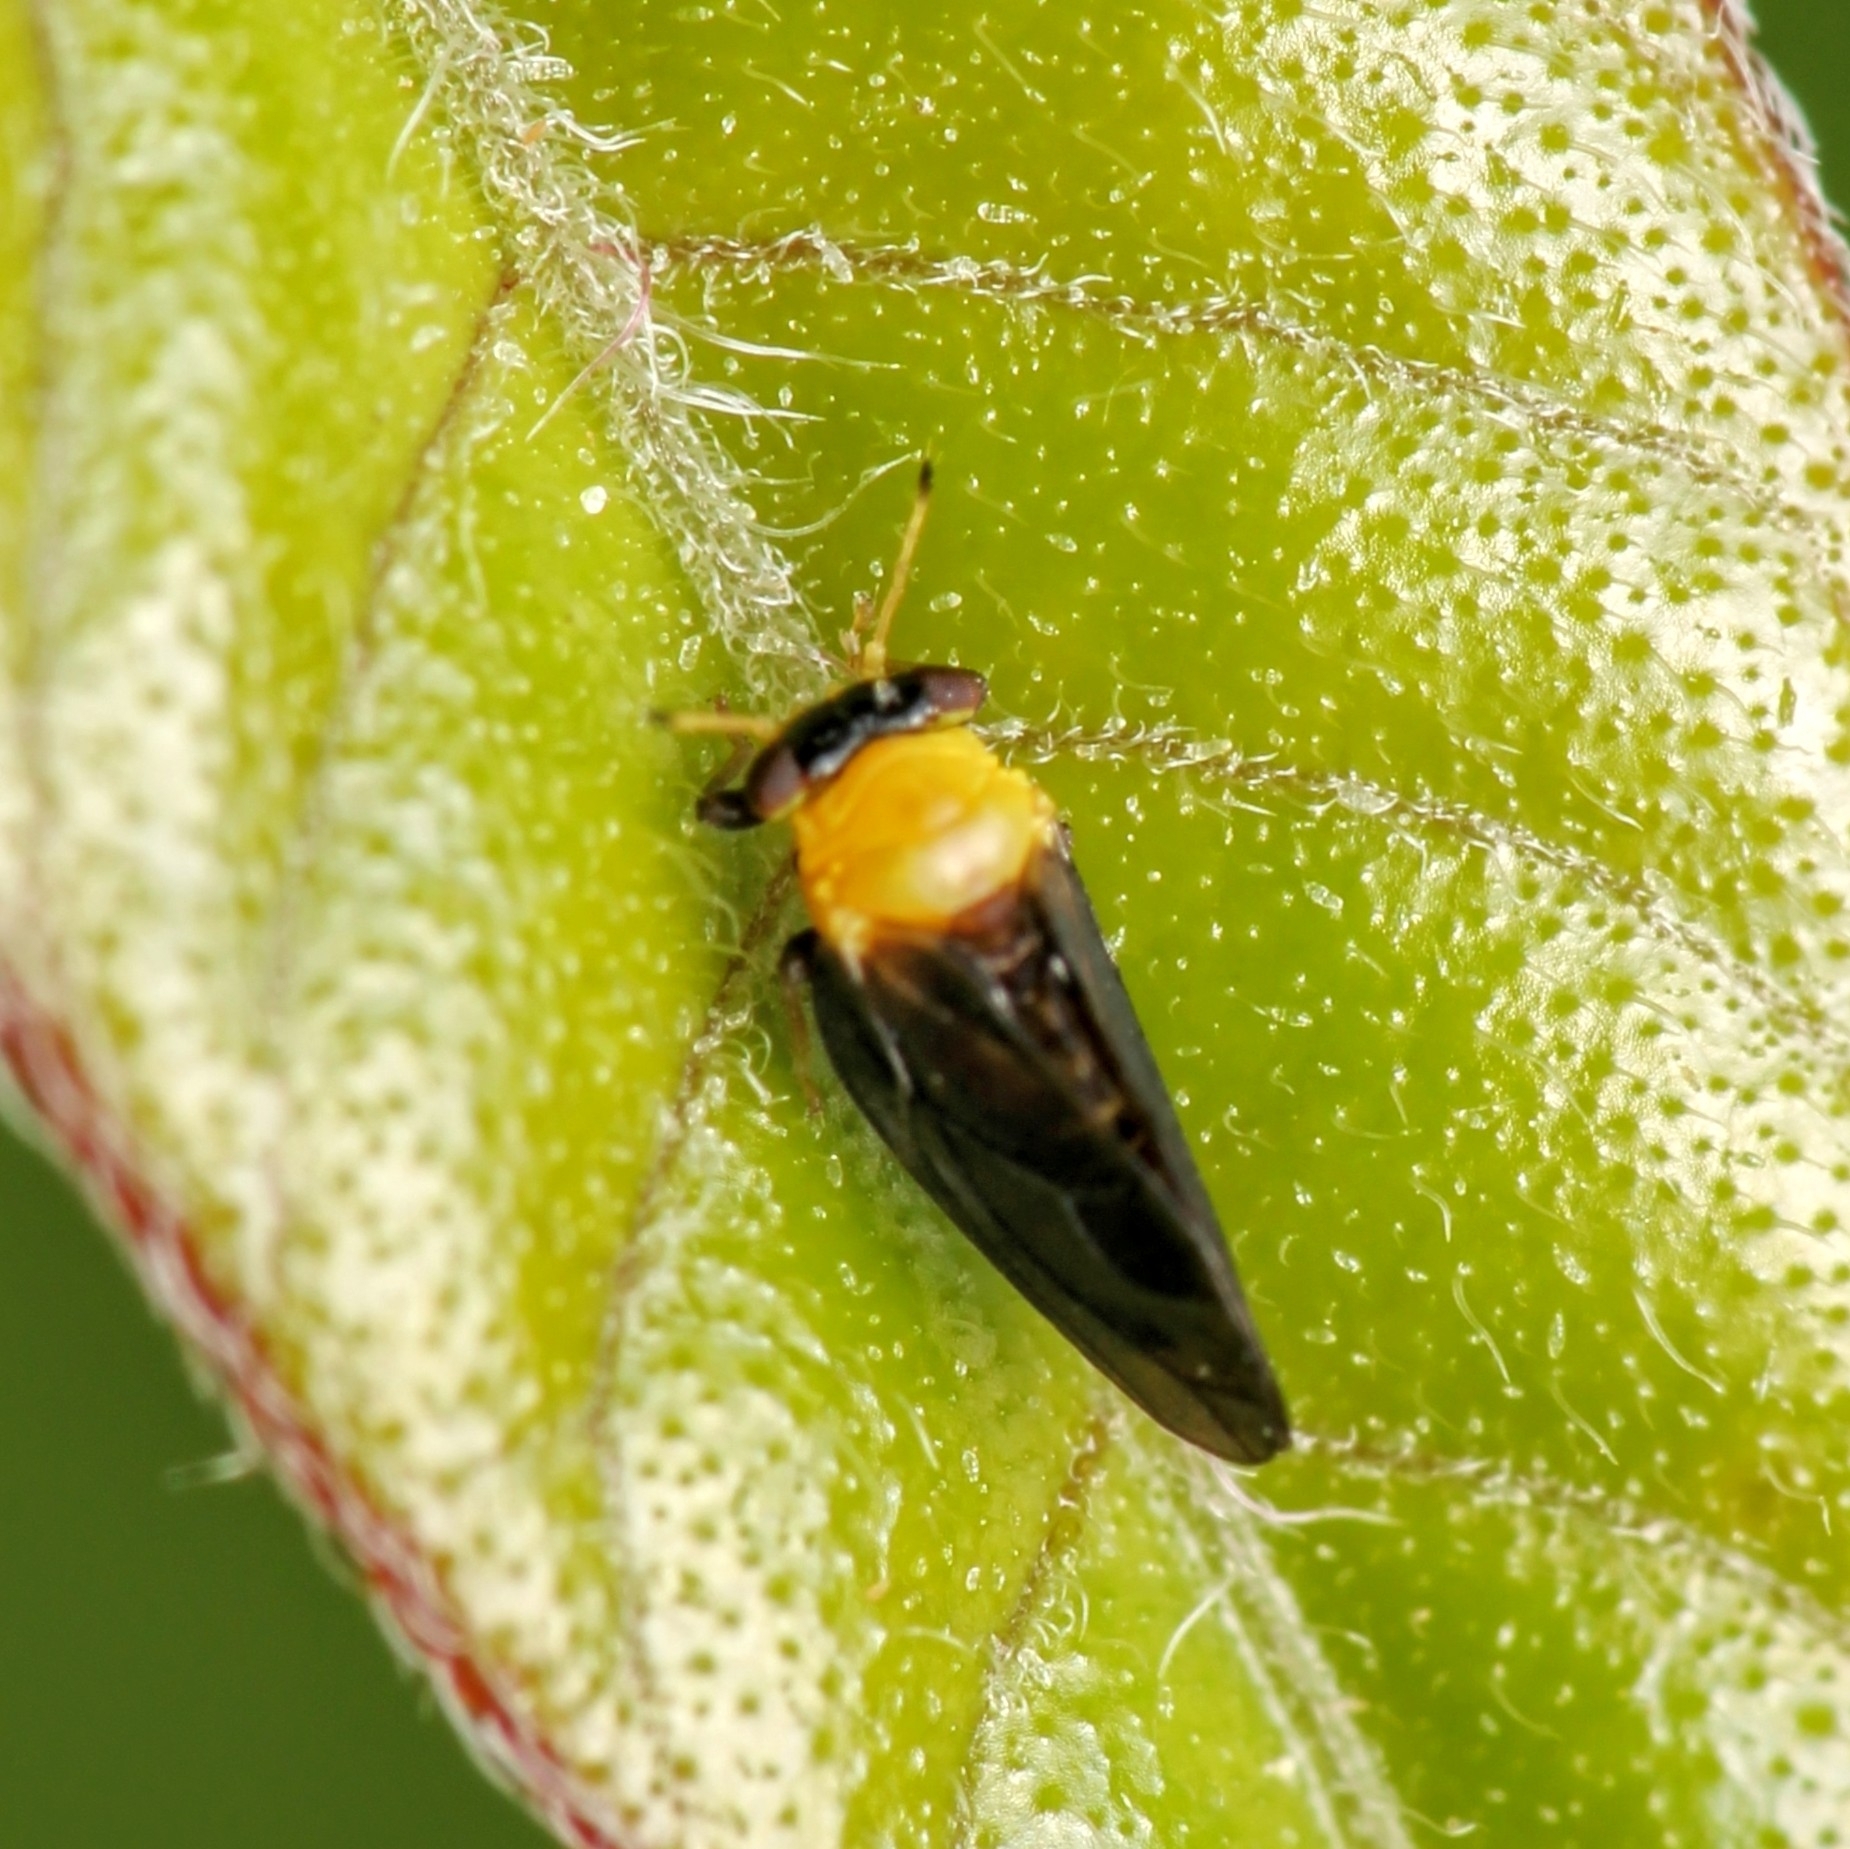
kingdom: Animalia
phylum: Arthropoda
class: Insecta
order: Hemiptera
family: Calophyidae
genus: Calophya
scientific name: Calophya nigripennis
